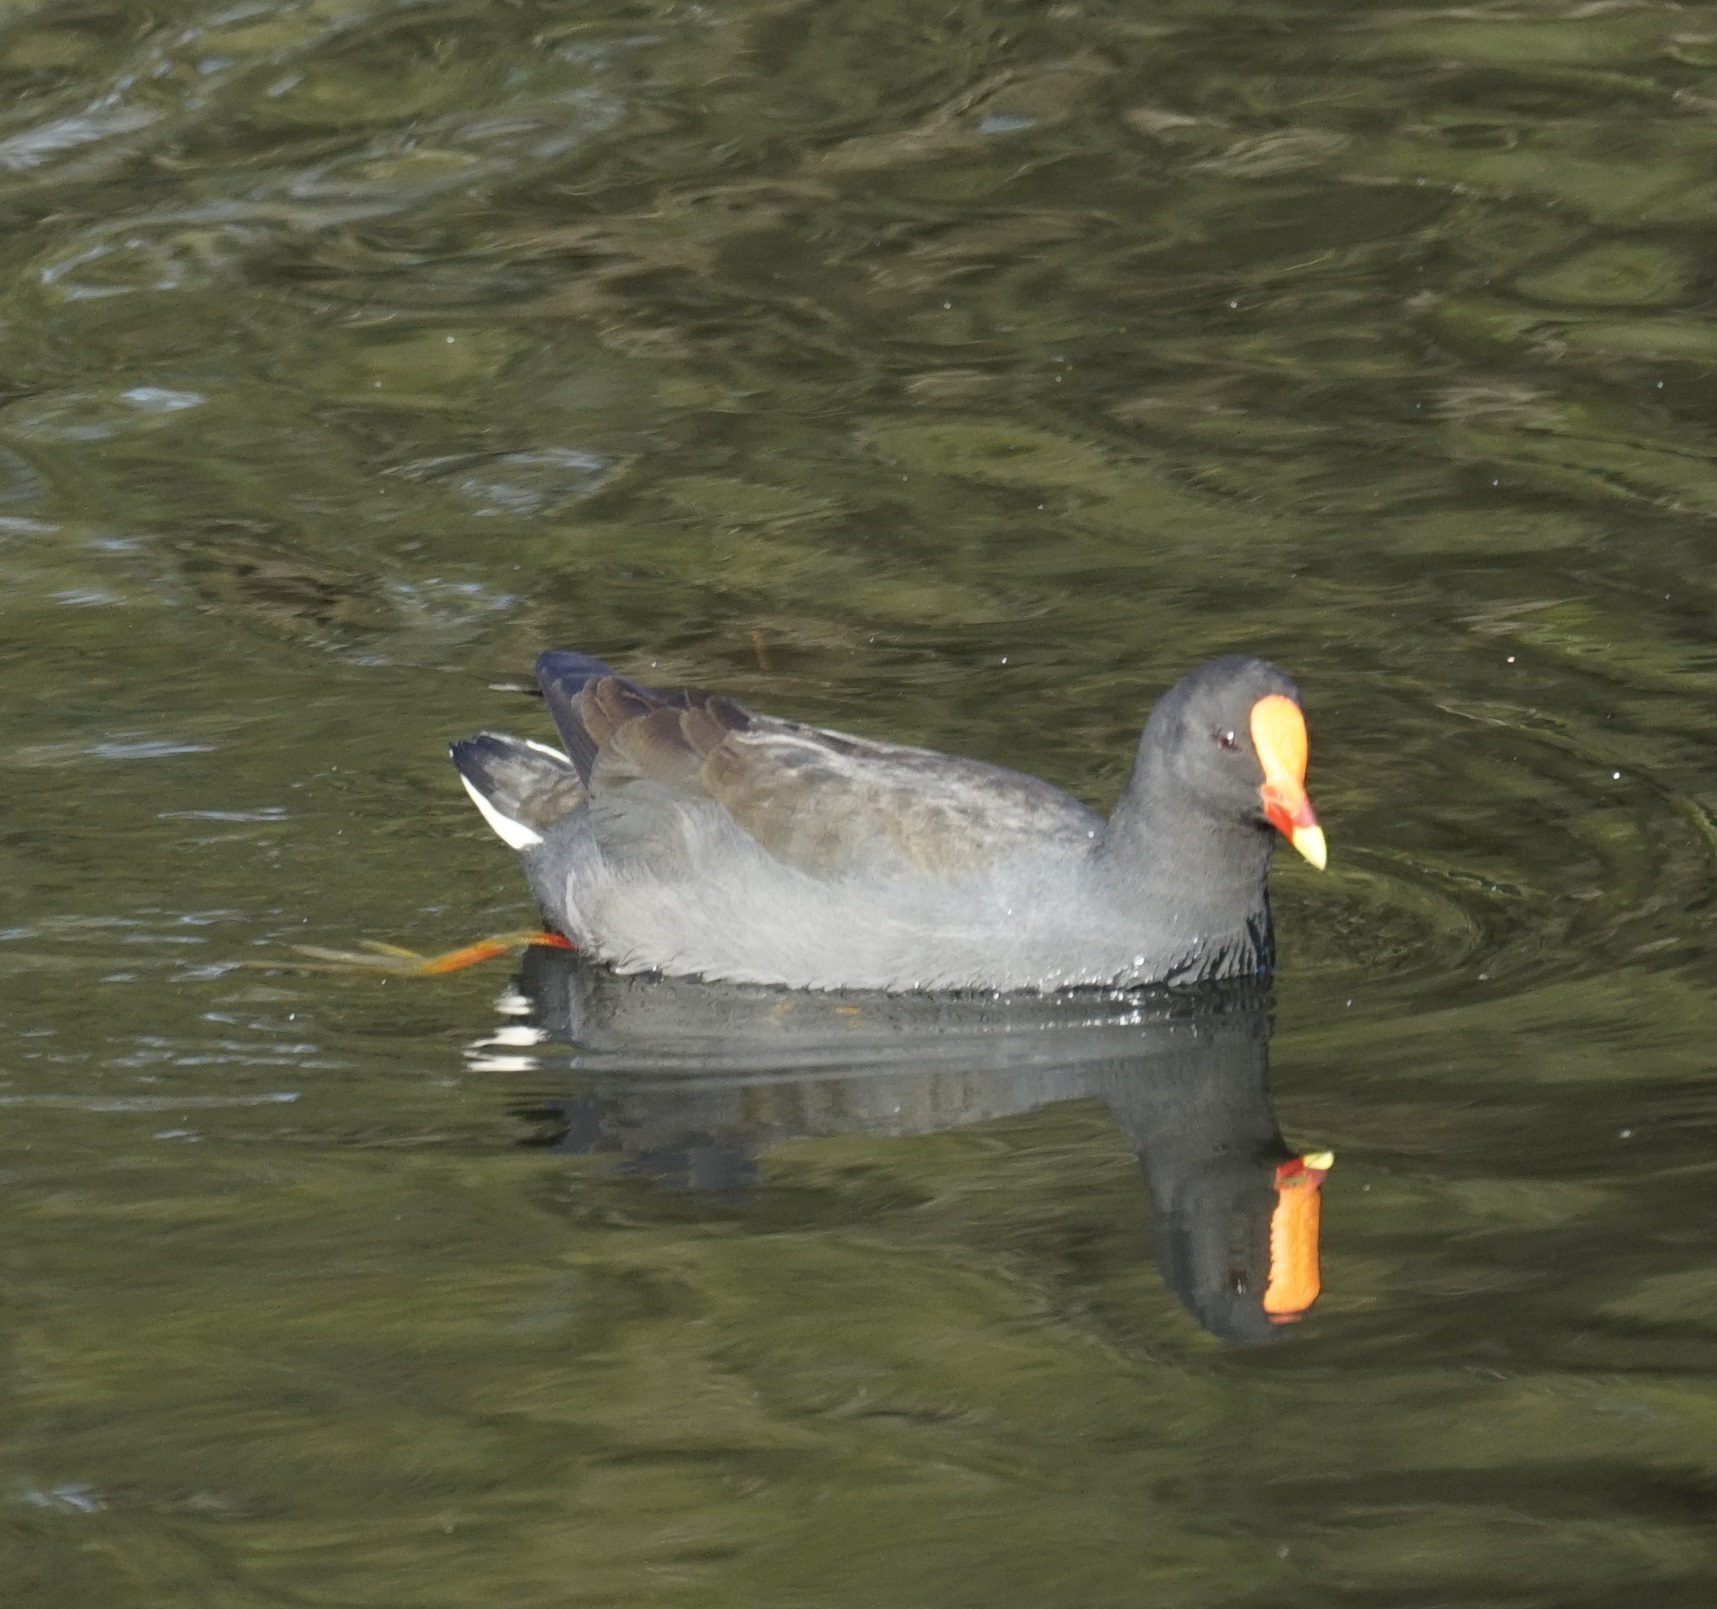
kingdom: Animalia
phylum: Chordata
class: Aves
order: Gruiformes
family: Rallidae
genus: Gallinula
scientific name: Gallinula tenebrosa
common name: Dusky moorhen
